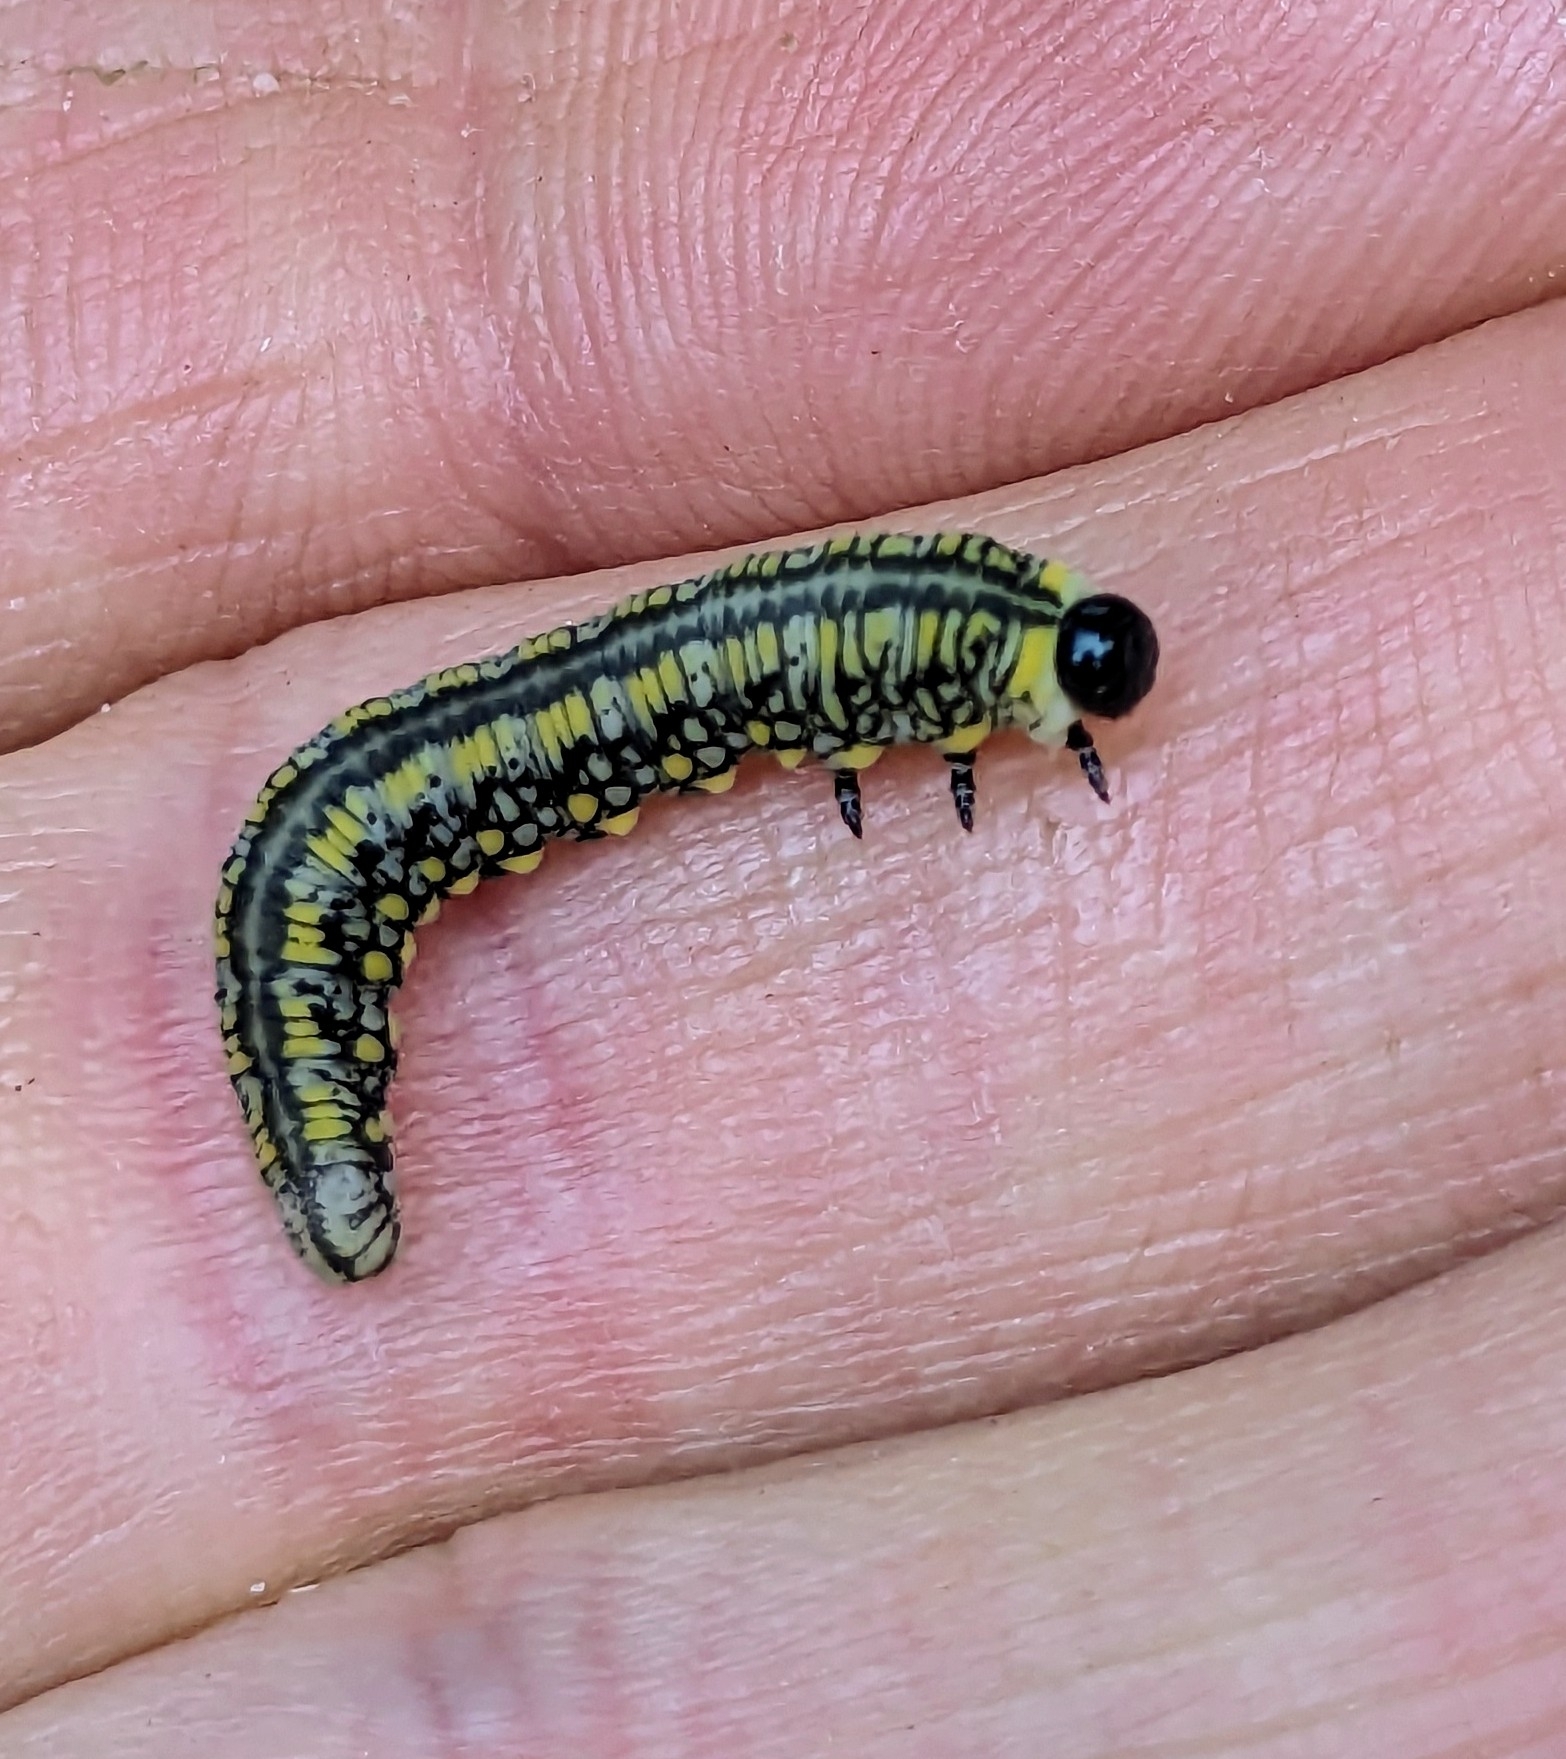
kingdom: Animalia
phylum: Arthropoda
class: Insecta
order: Hymenoptera
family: Diprionidae
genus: Diprion
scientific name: Diprion similis
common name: Pine sawfly
